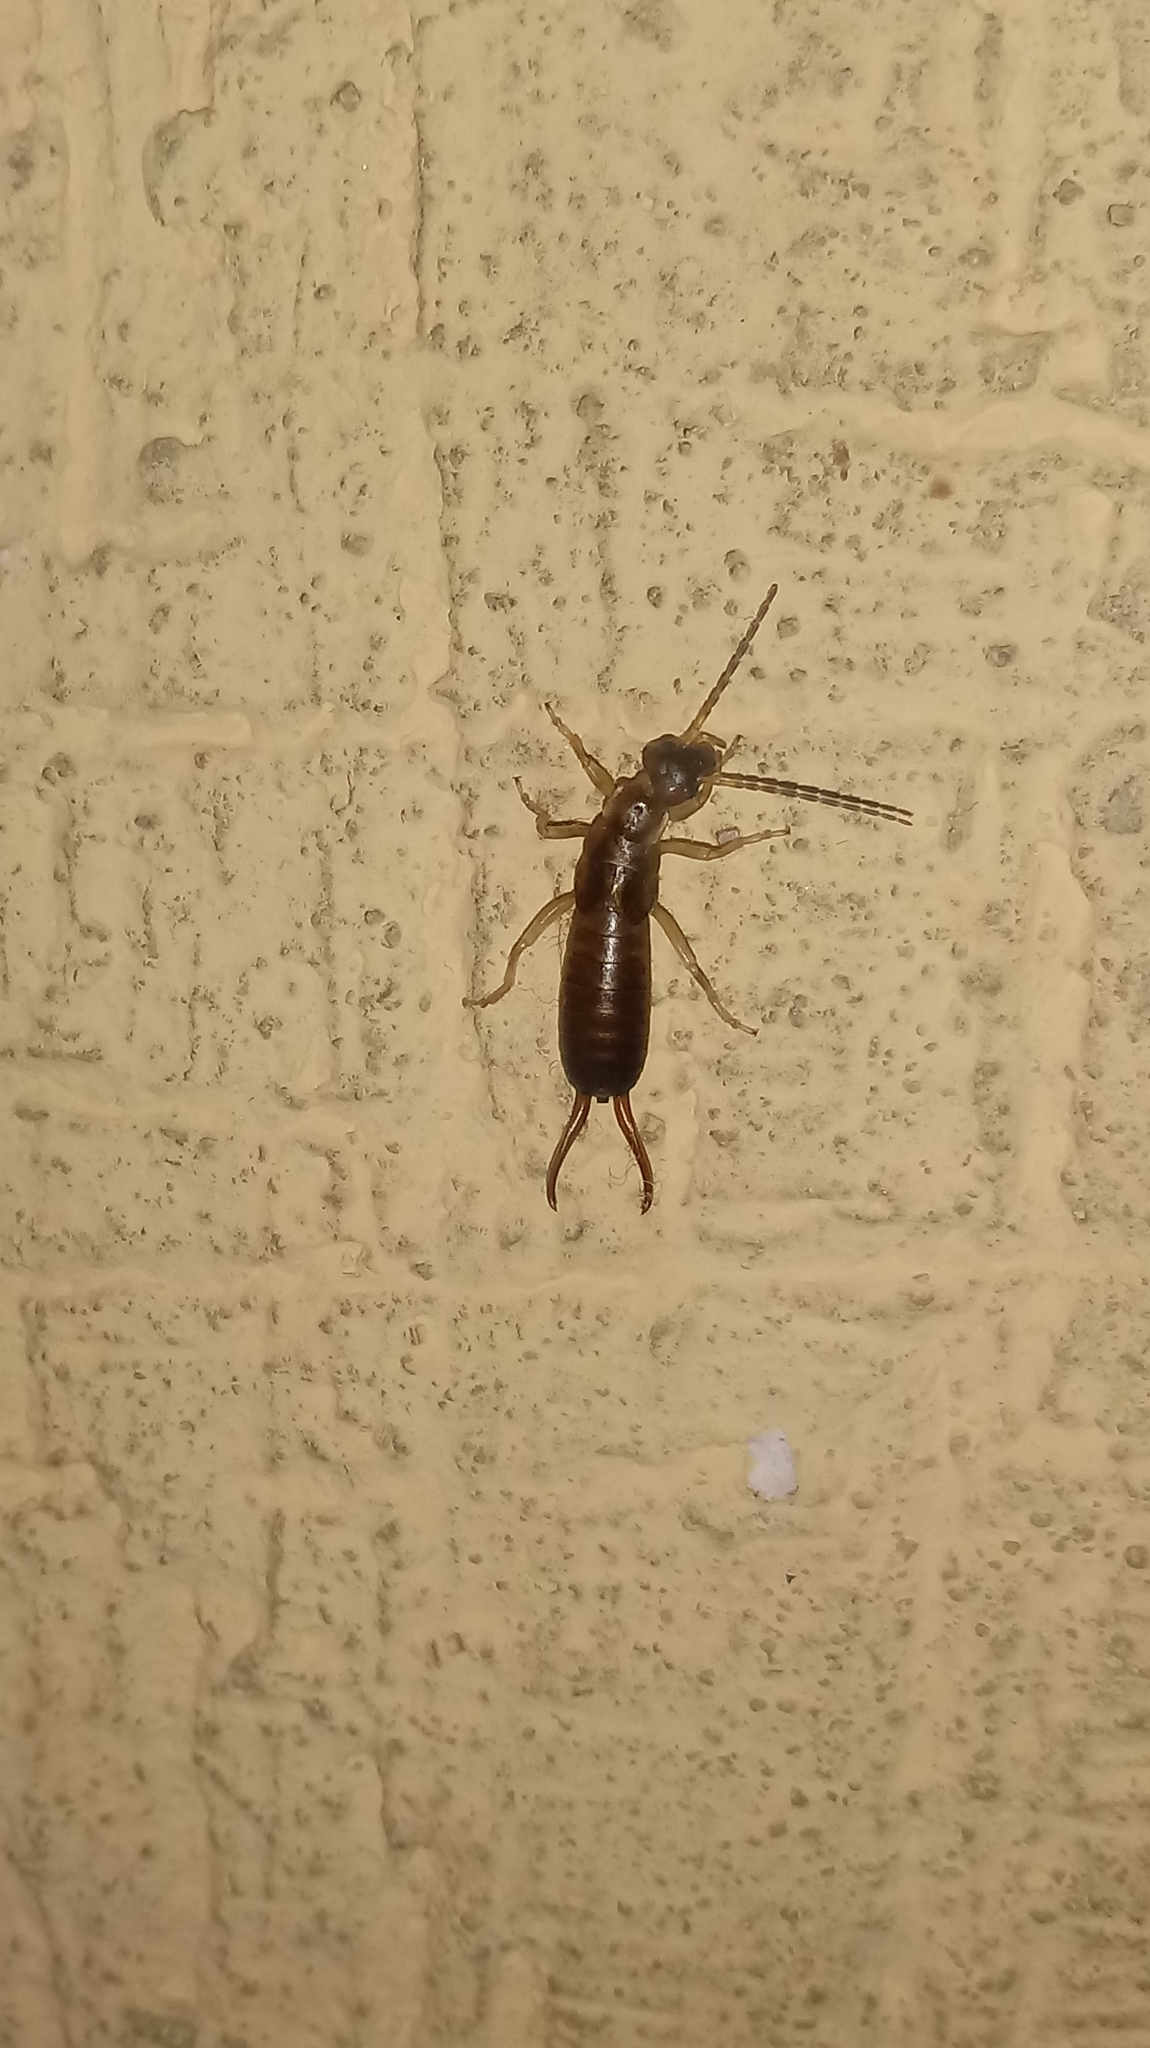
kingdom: Animalia
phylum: Arthropoda
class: Insecta
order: Dermaptera
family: Forficulidae
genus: Forficula
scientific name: Forficula
